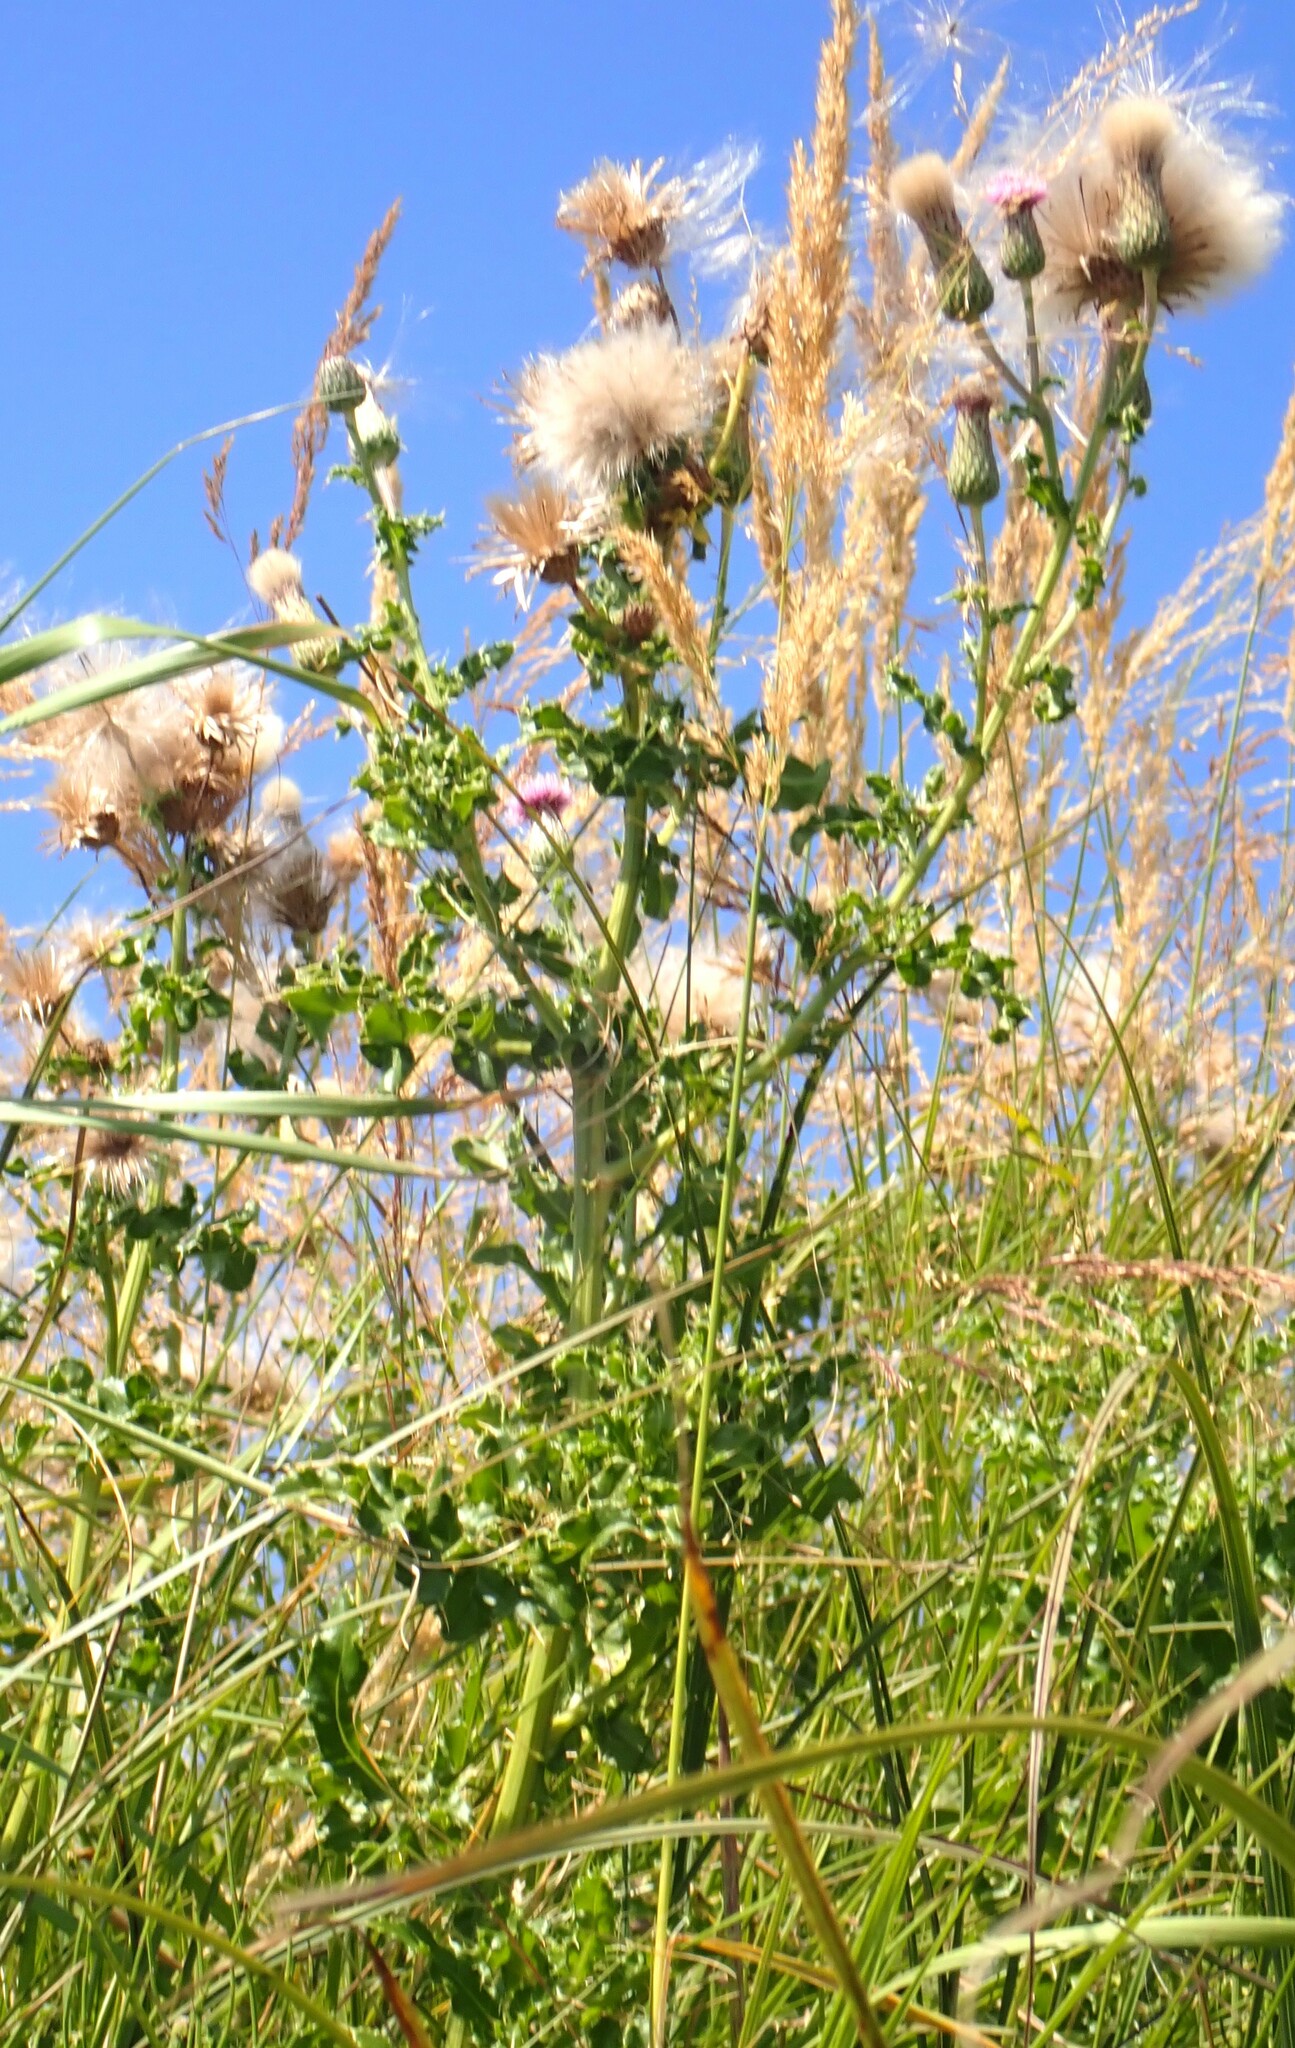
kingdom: Plantae
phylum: Tracheophyta
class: Magnoliopsida
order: Asterales
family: Asteraceae
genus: Cirsium
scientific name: Cirsium arvense
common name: Creeping thistle
